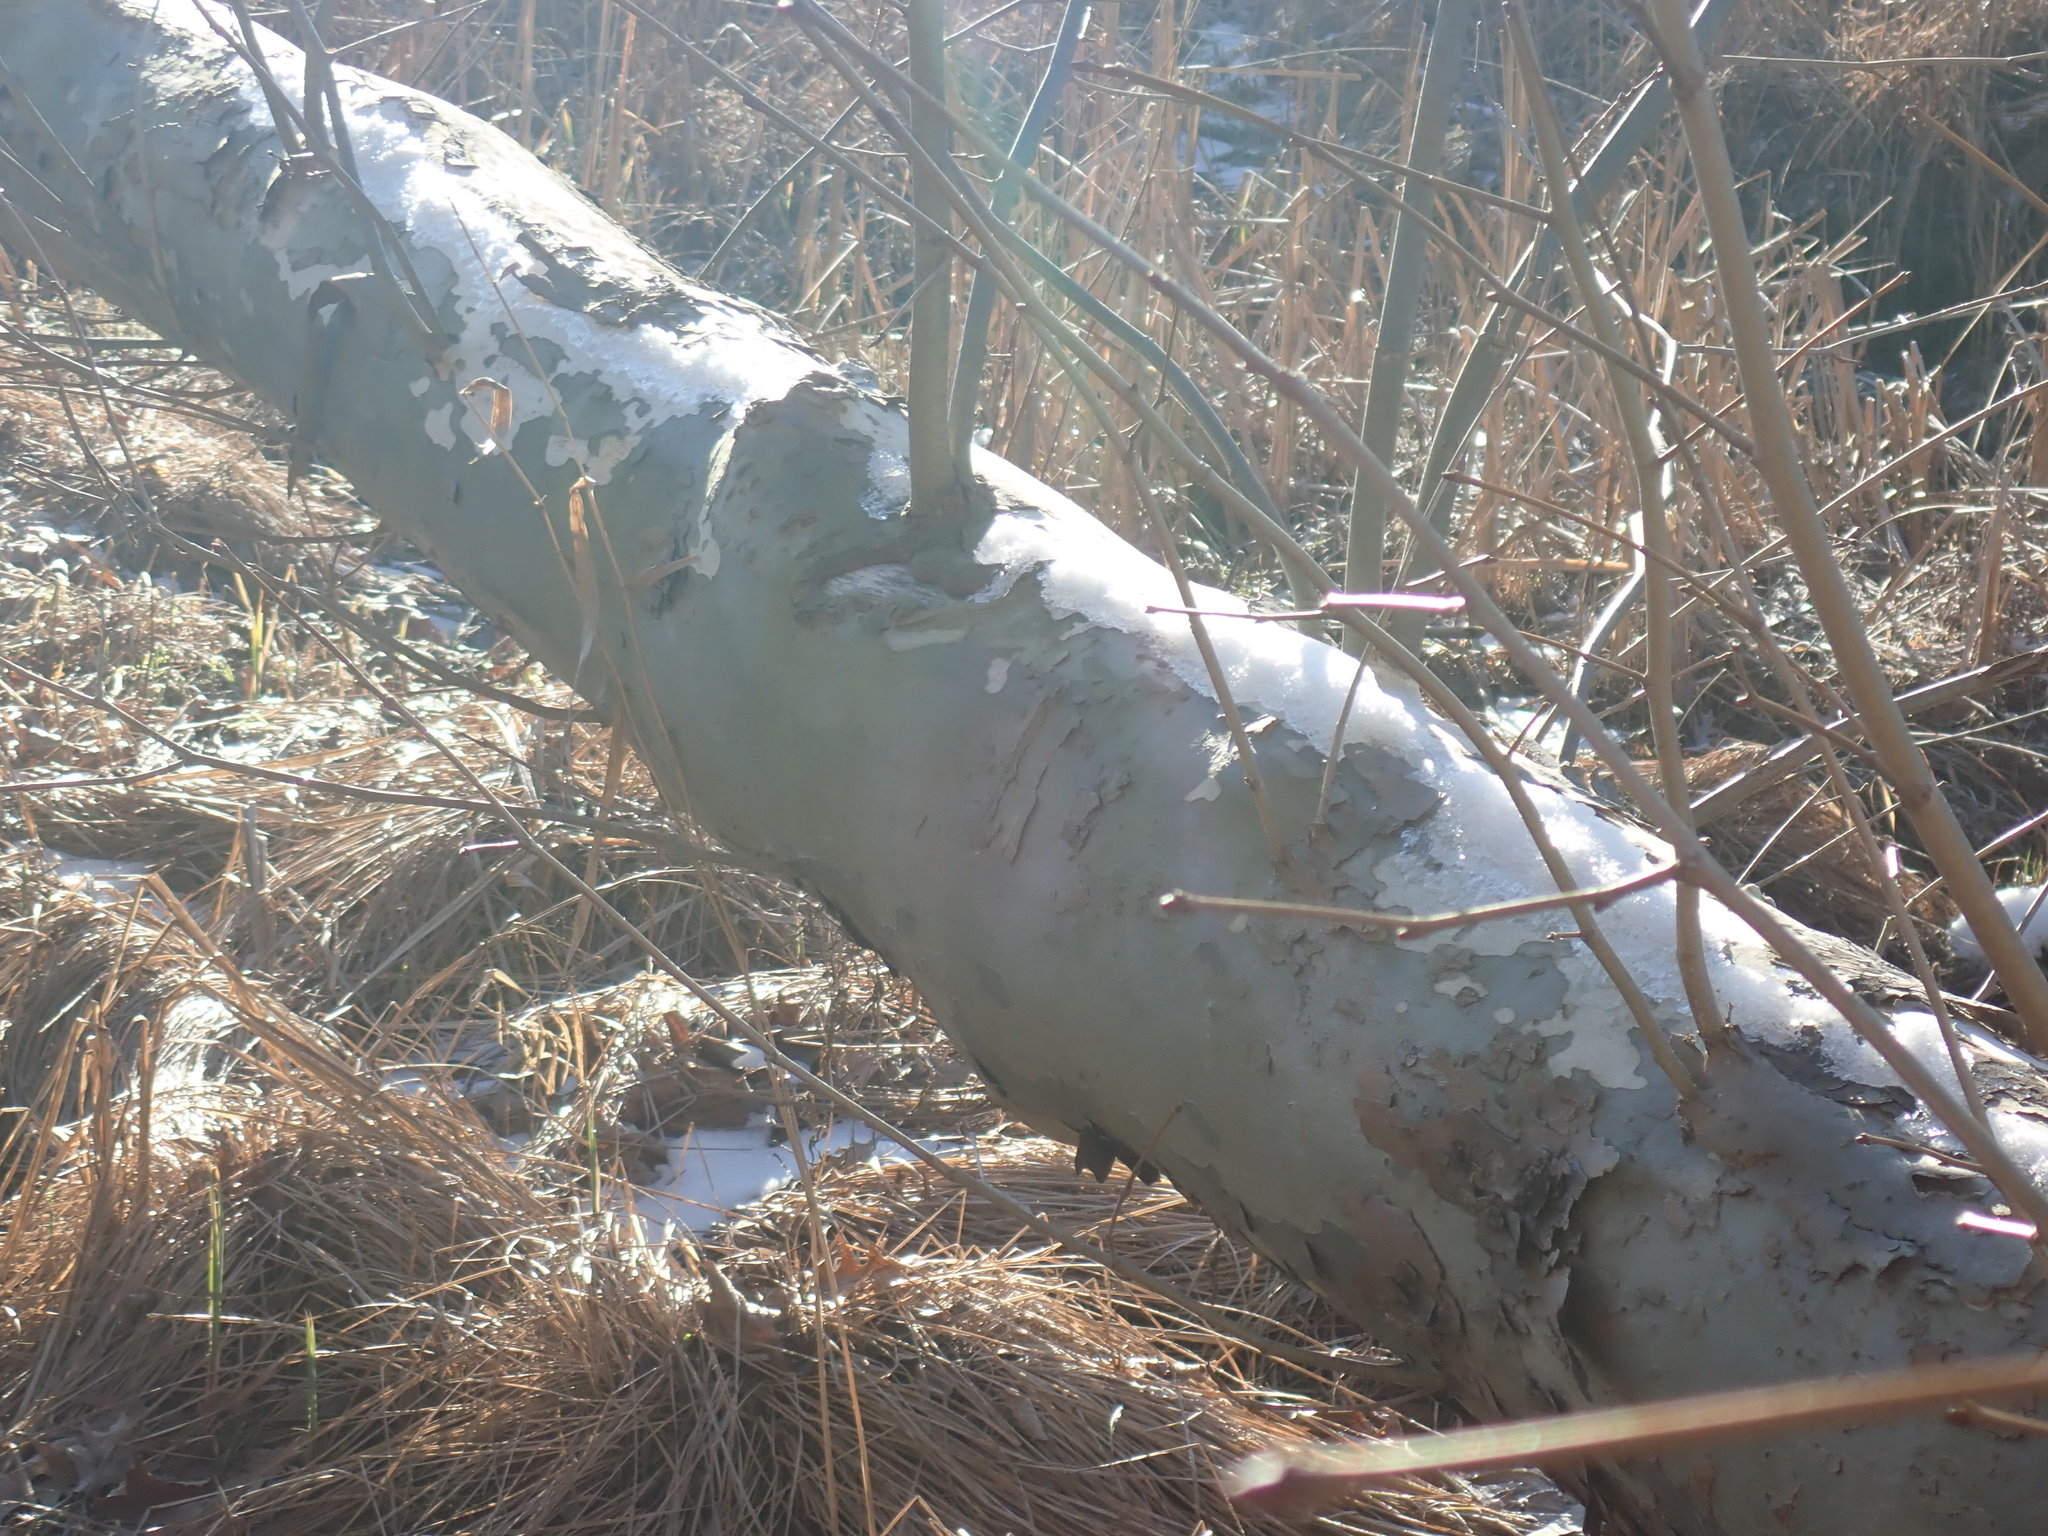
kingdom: Plantae
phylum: Tracheophyta
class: Magnoliopsida
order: Proteales
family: Platanaceae
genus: Platanus
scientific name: Platanus occidentalis
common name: American sycamore
